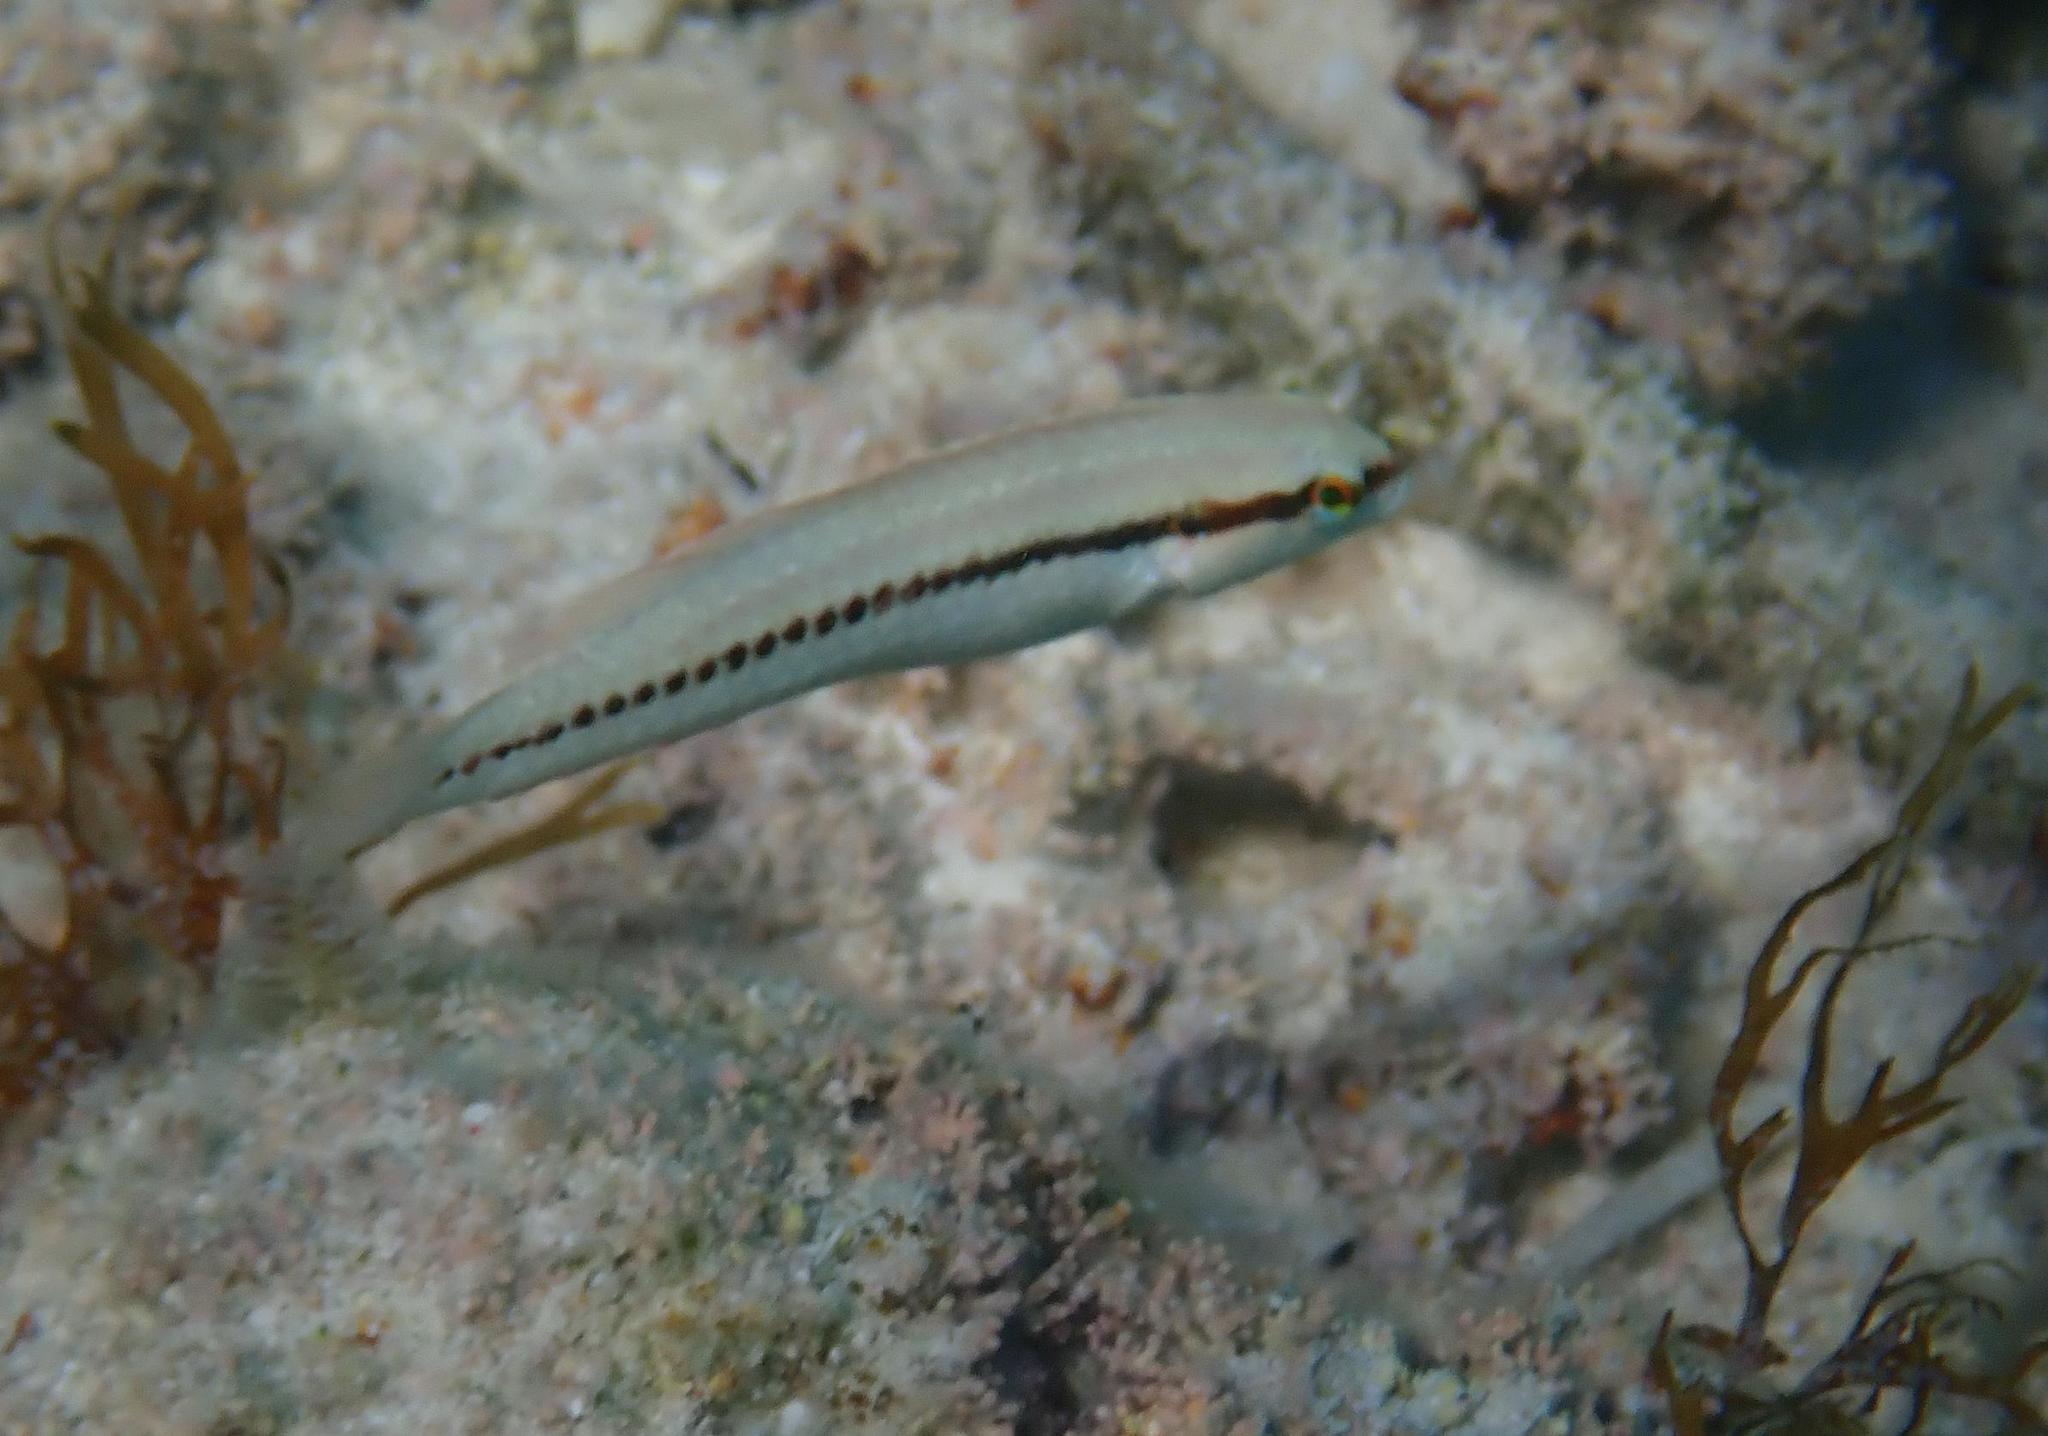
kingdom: Animalia
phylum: Chordata
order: Perciformes
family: Labridae
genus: Halichoeres
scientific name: Halichoeres bivittatus
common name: Slippery dick
